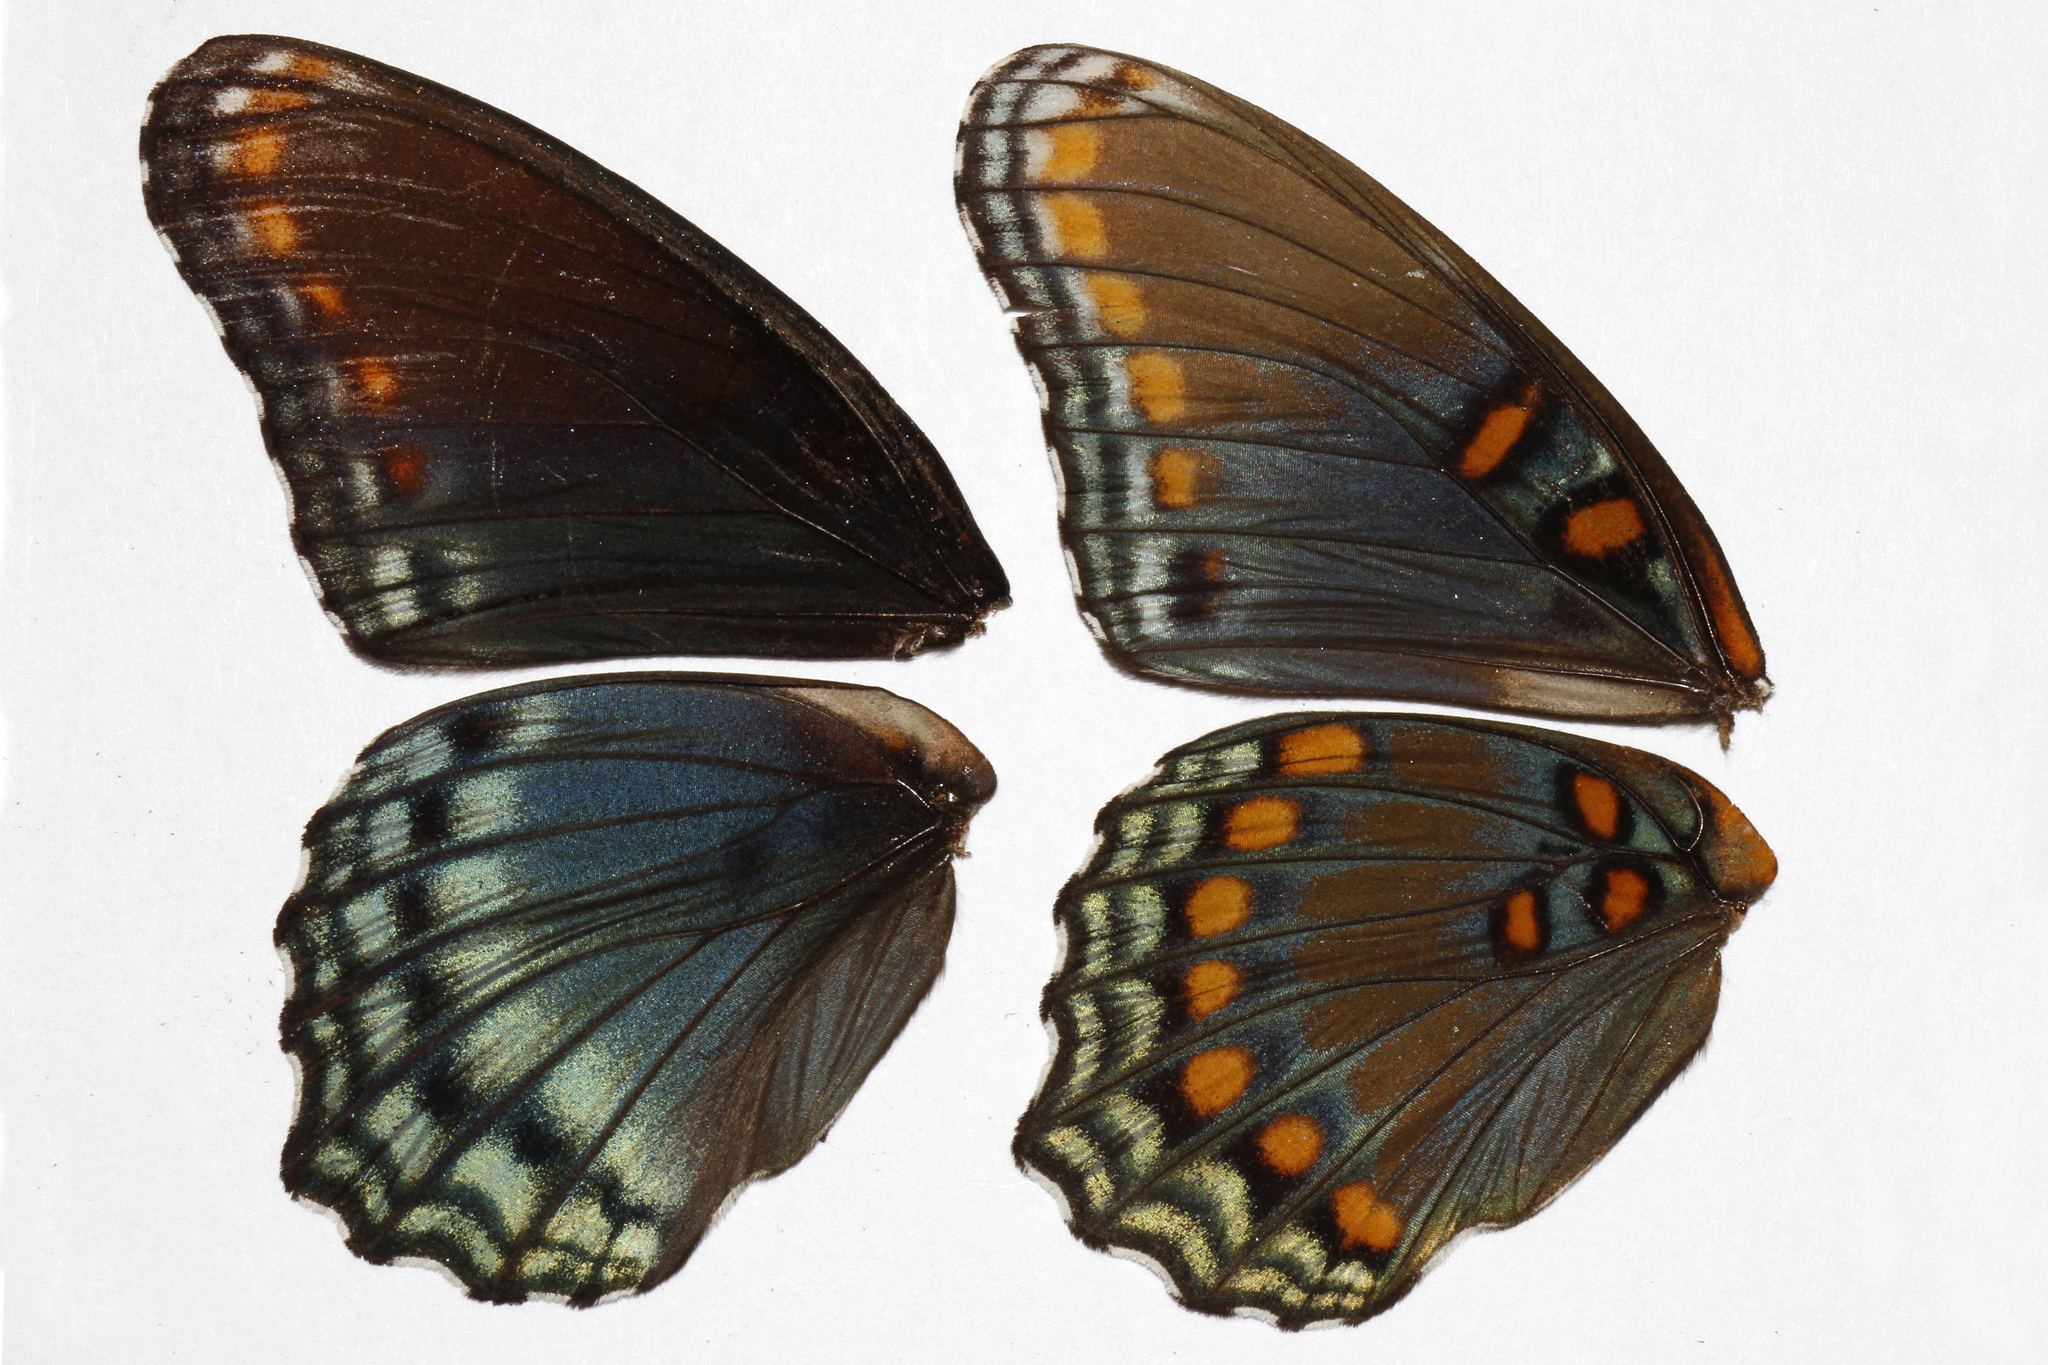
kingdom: Animalia
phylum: Arthropoda
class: Insecta
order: Lepidoptera
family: Nymphalidae
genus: Limenitis
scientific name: Limenitis astyanax
